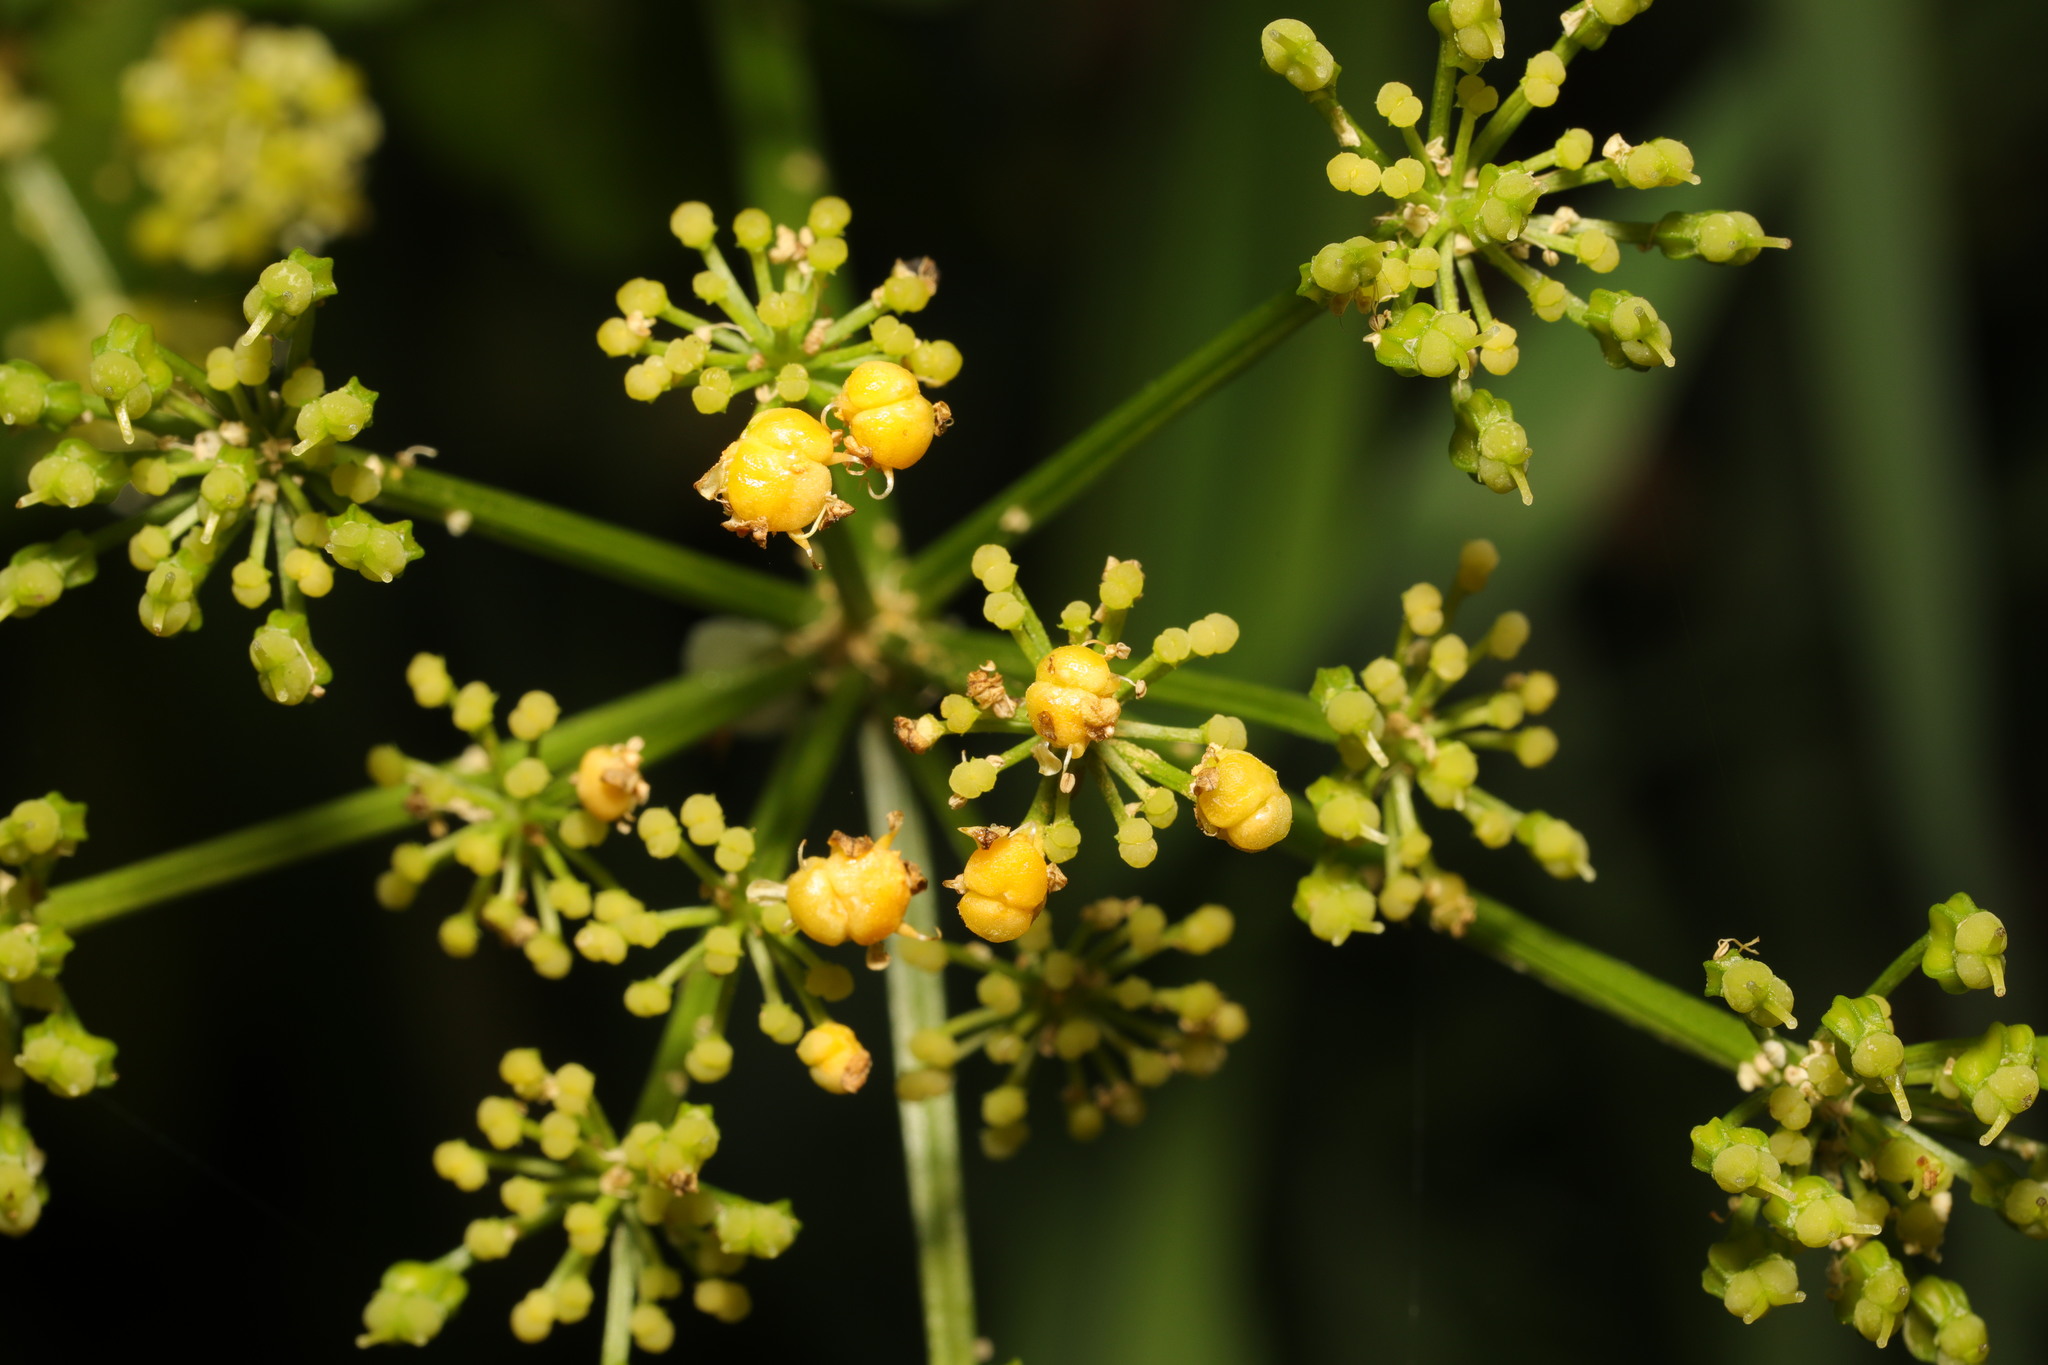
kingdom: Plantae
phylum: Tracheophyta
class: Magnoliopsida
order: Apiales
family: Apiaceae
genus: Smyrnium
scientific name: Smyrnium olusatrum
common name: Alexanders
